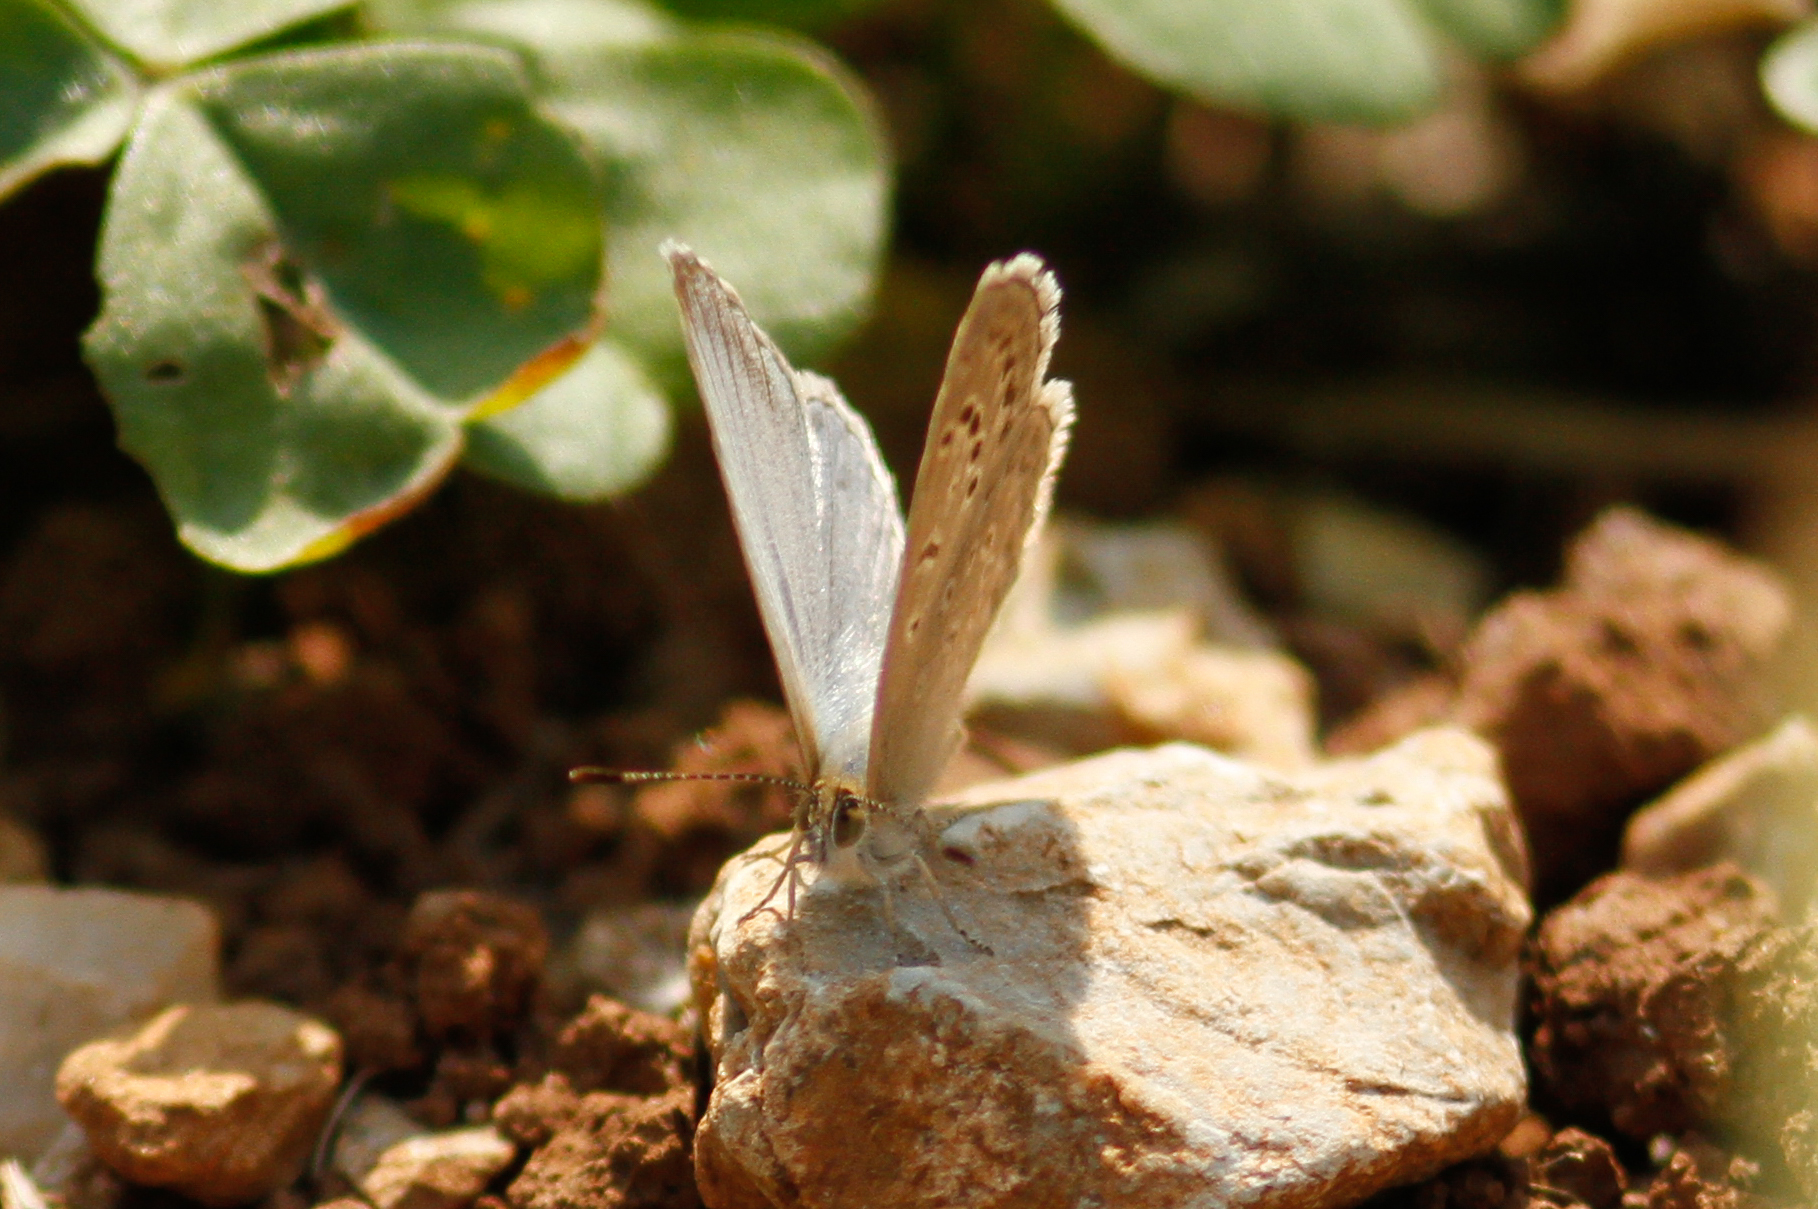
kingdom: Animalia
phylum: Arthropoda
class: Insecta
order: Lepidoptera
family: Lycaenidae
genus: Pseudozizeeria
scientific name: Pseudozizeeria maha
